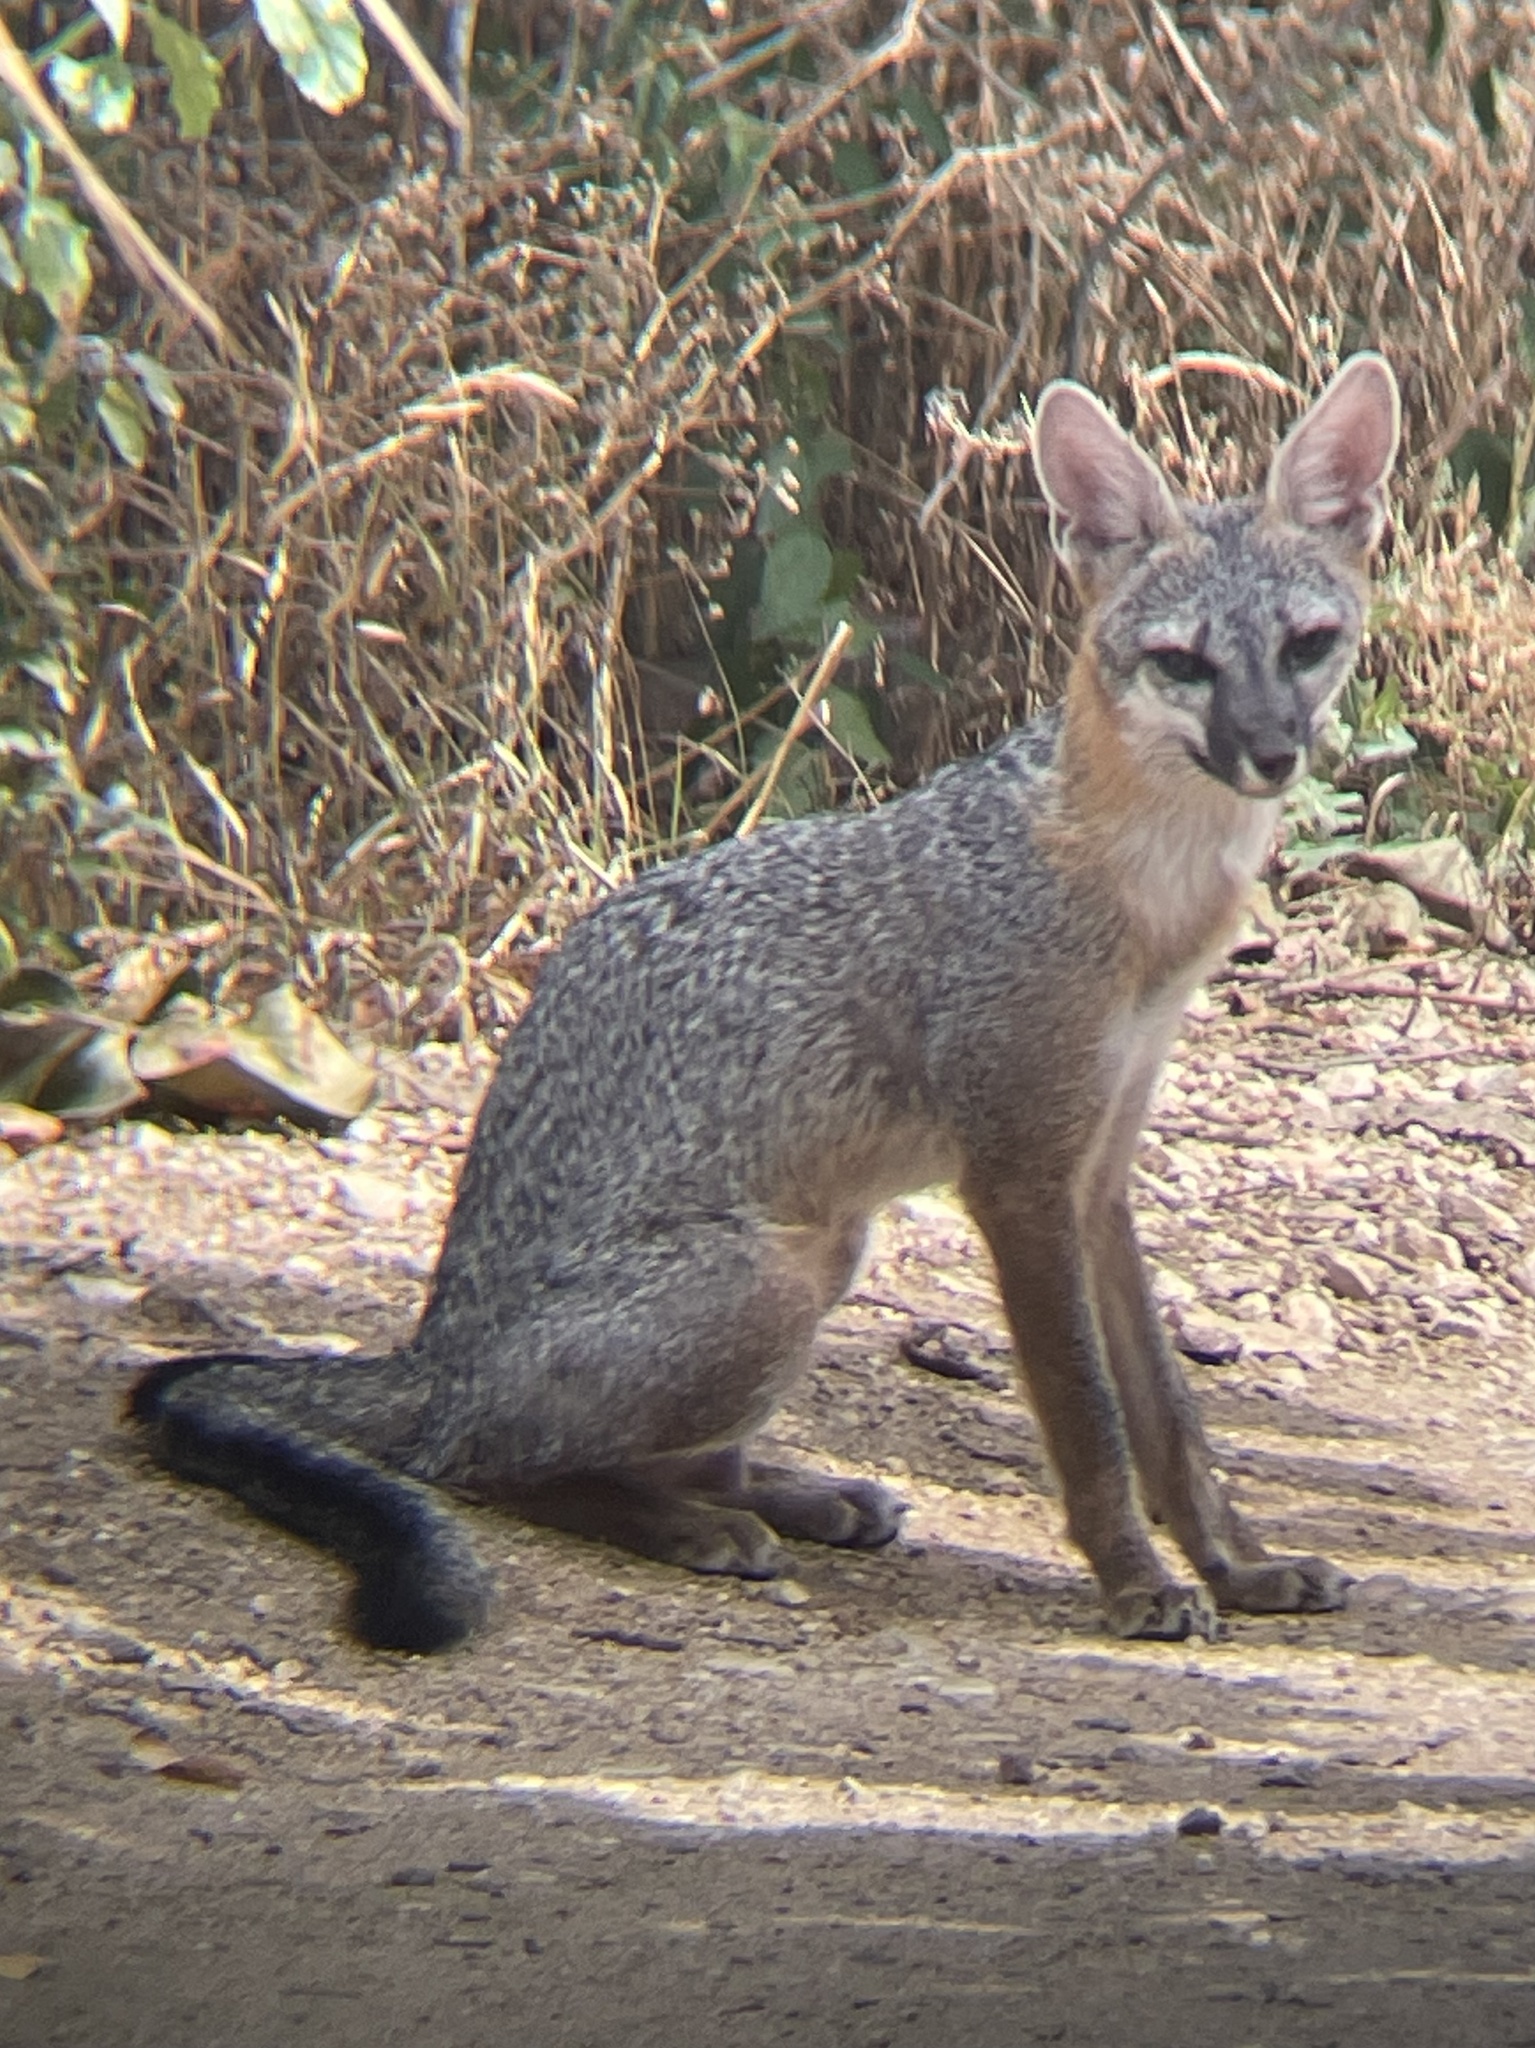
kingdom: Animalia
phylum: Chordata
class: Mammalia
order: Carnivora
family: Canidae
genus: Urocyon
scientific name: Urocyon cinereoargenteus
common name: Gray fox
